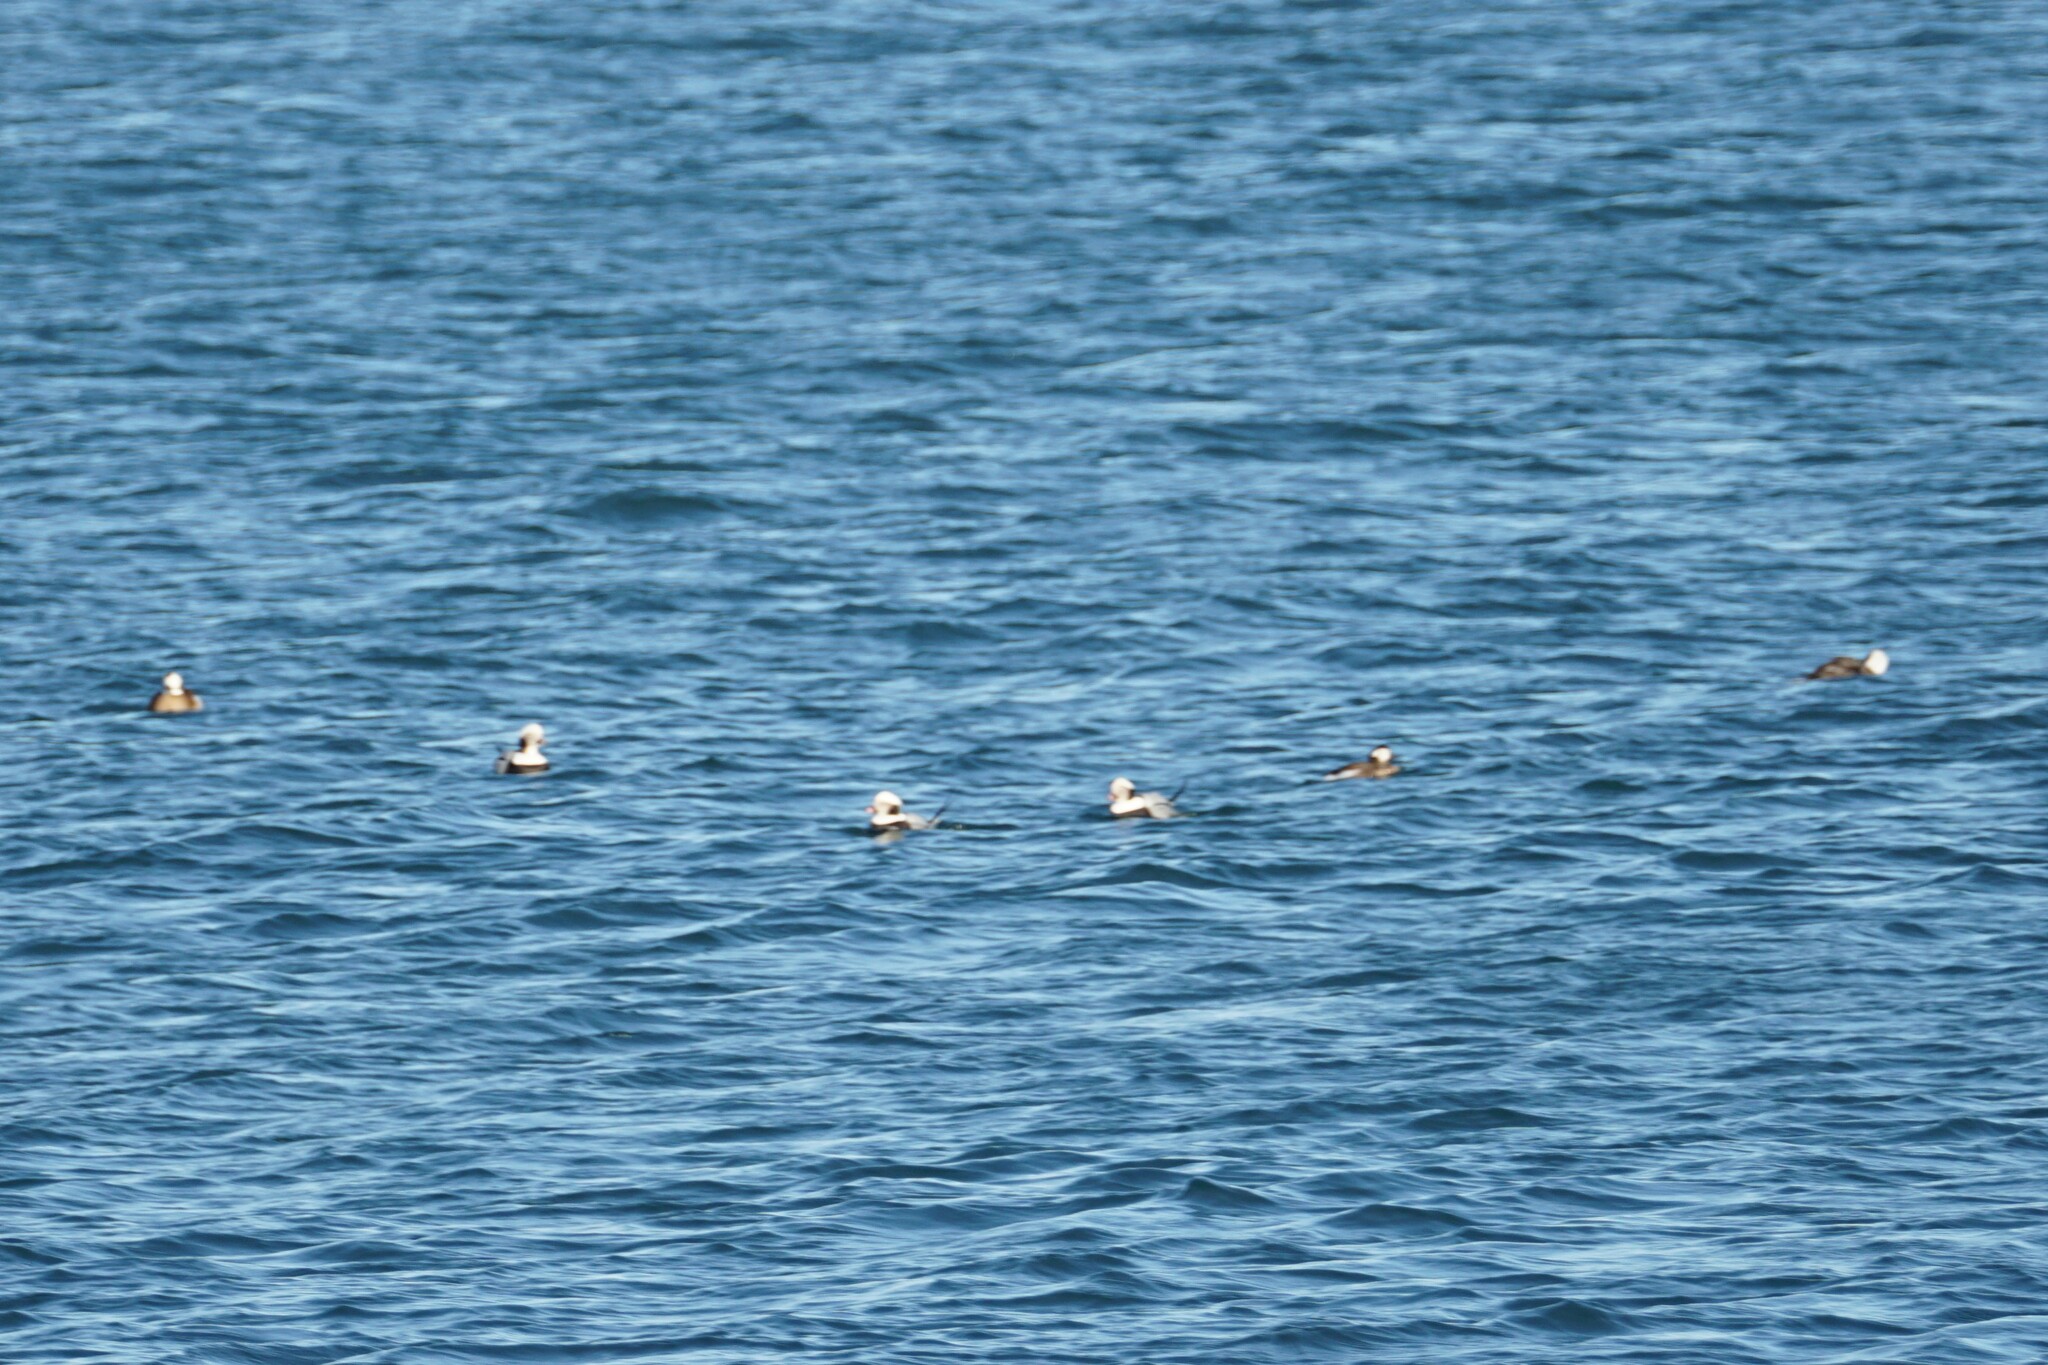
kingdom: Animalia
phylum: Chordata
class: Aves
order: Anseriformes
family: Anatidae
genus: Clangula
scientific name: Clangula hyemalis
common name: Long-tailed duck
